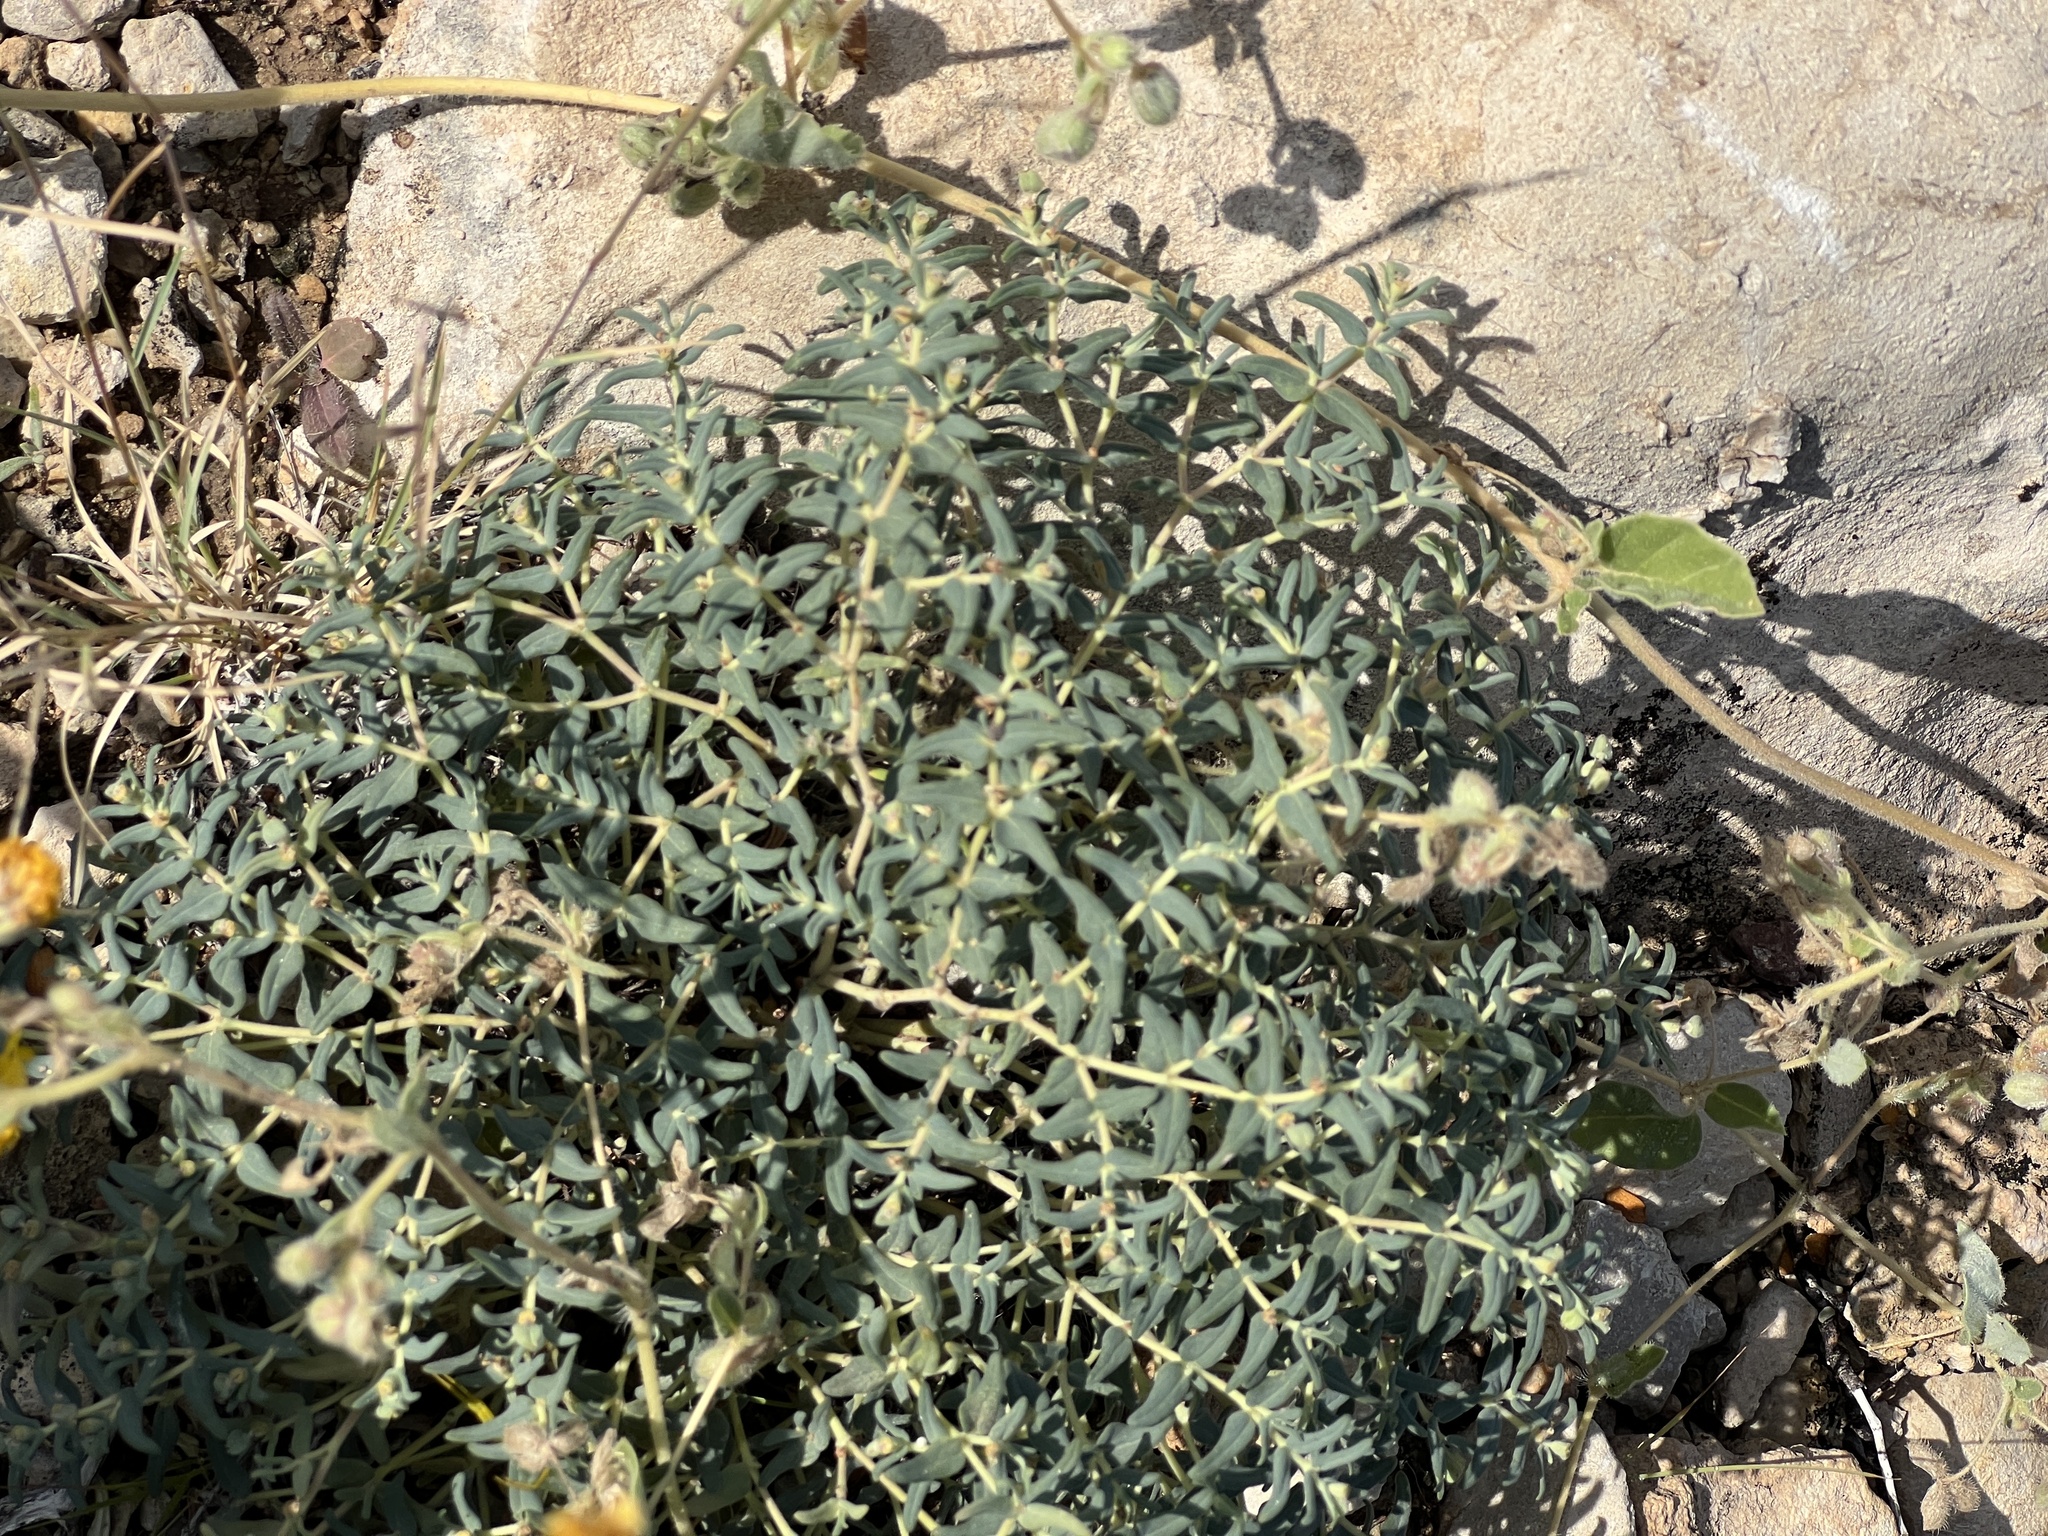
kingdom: Plantae
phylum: Tracheophyta
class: Magnoliopsida
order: Malpighiales
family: Euphorbiaceae
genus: Euphorbia
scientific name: Euphorbia lata
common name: Hoary euphorbia
